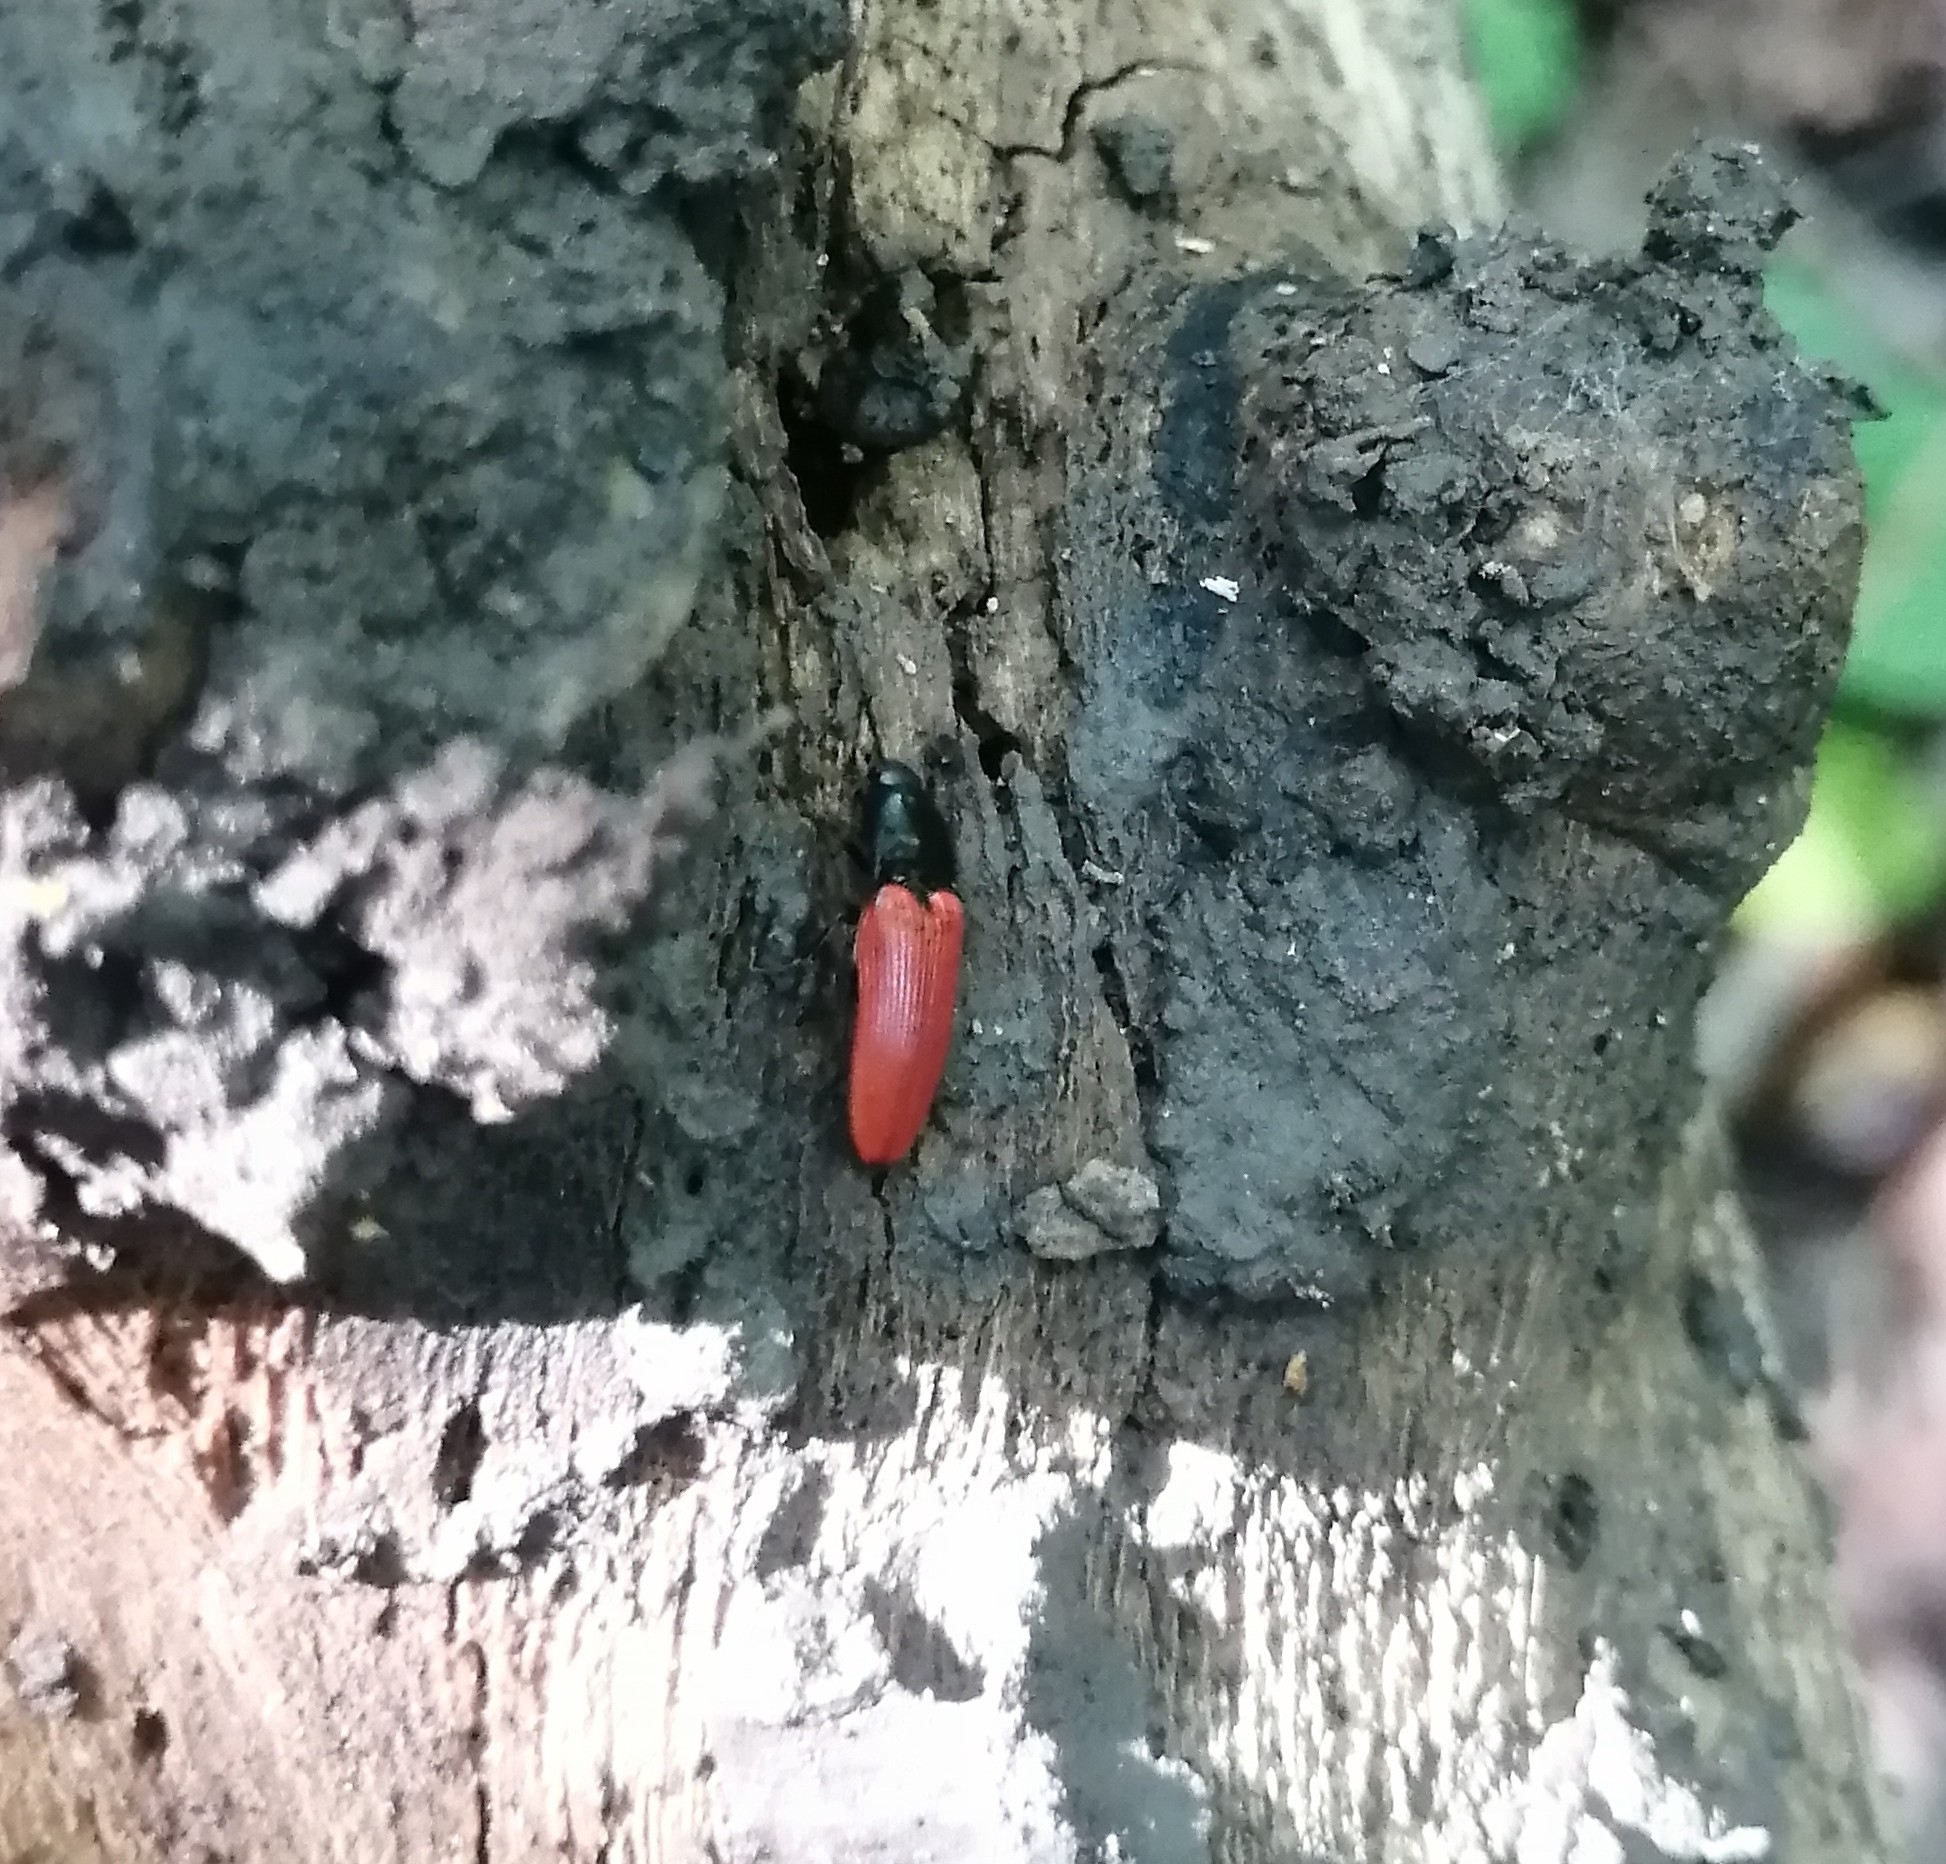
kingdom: Animalia
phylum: Arthropoda
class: Insecta
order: Coleoptera
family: Elateridae
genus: Ampedus
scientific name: Ampedus sanguineus
